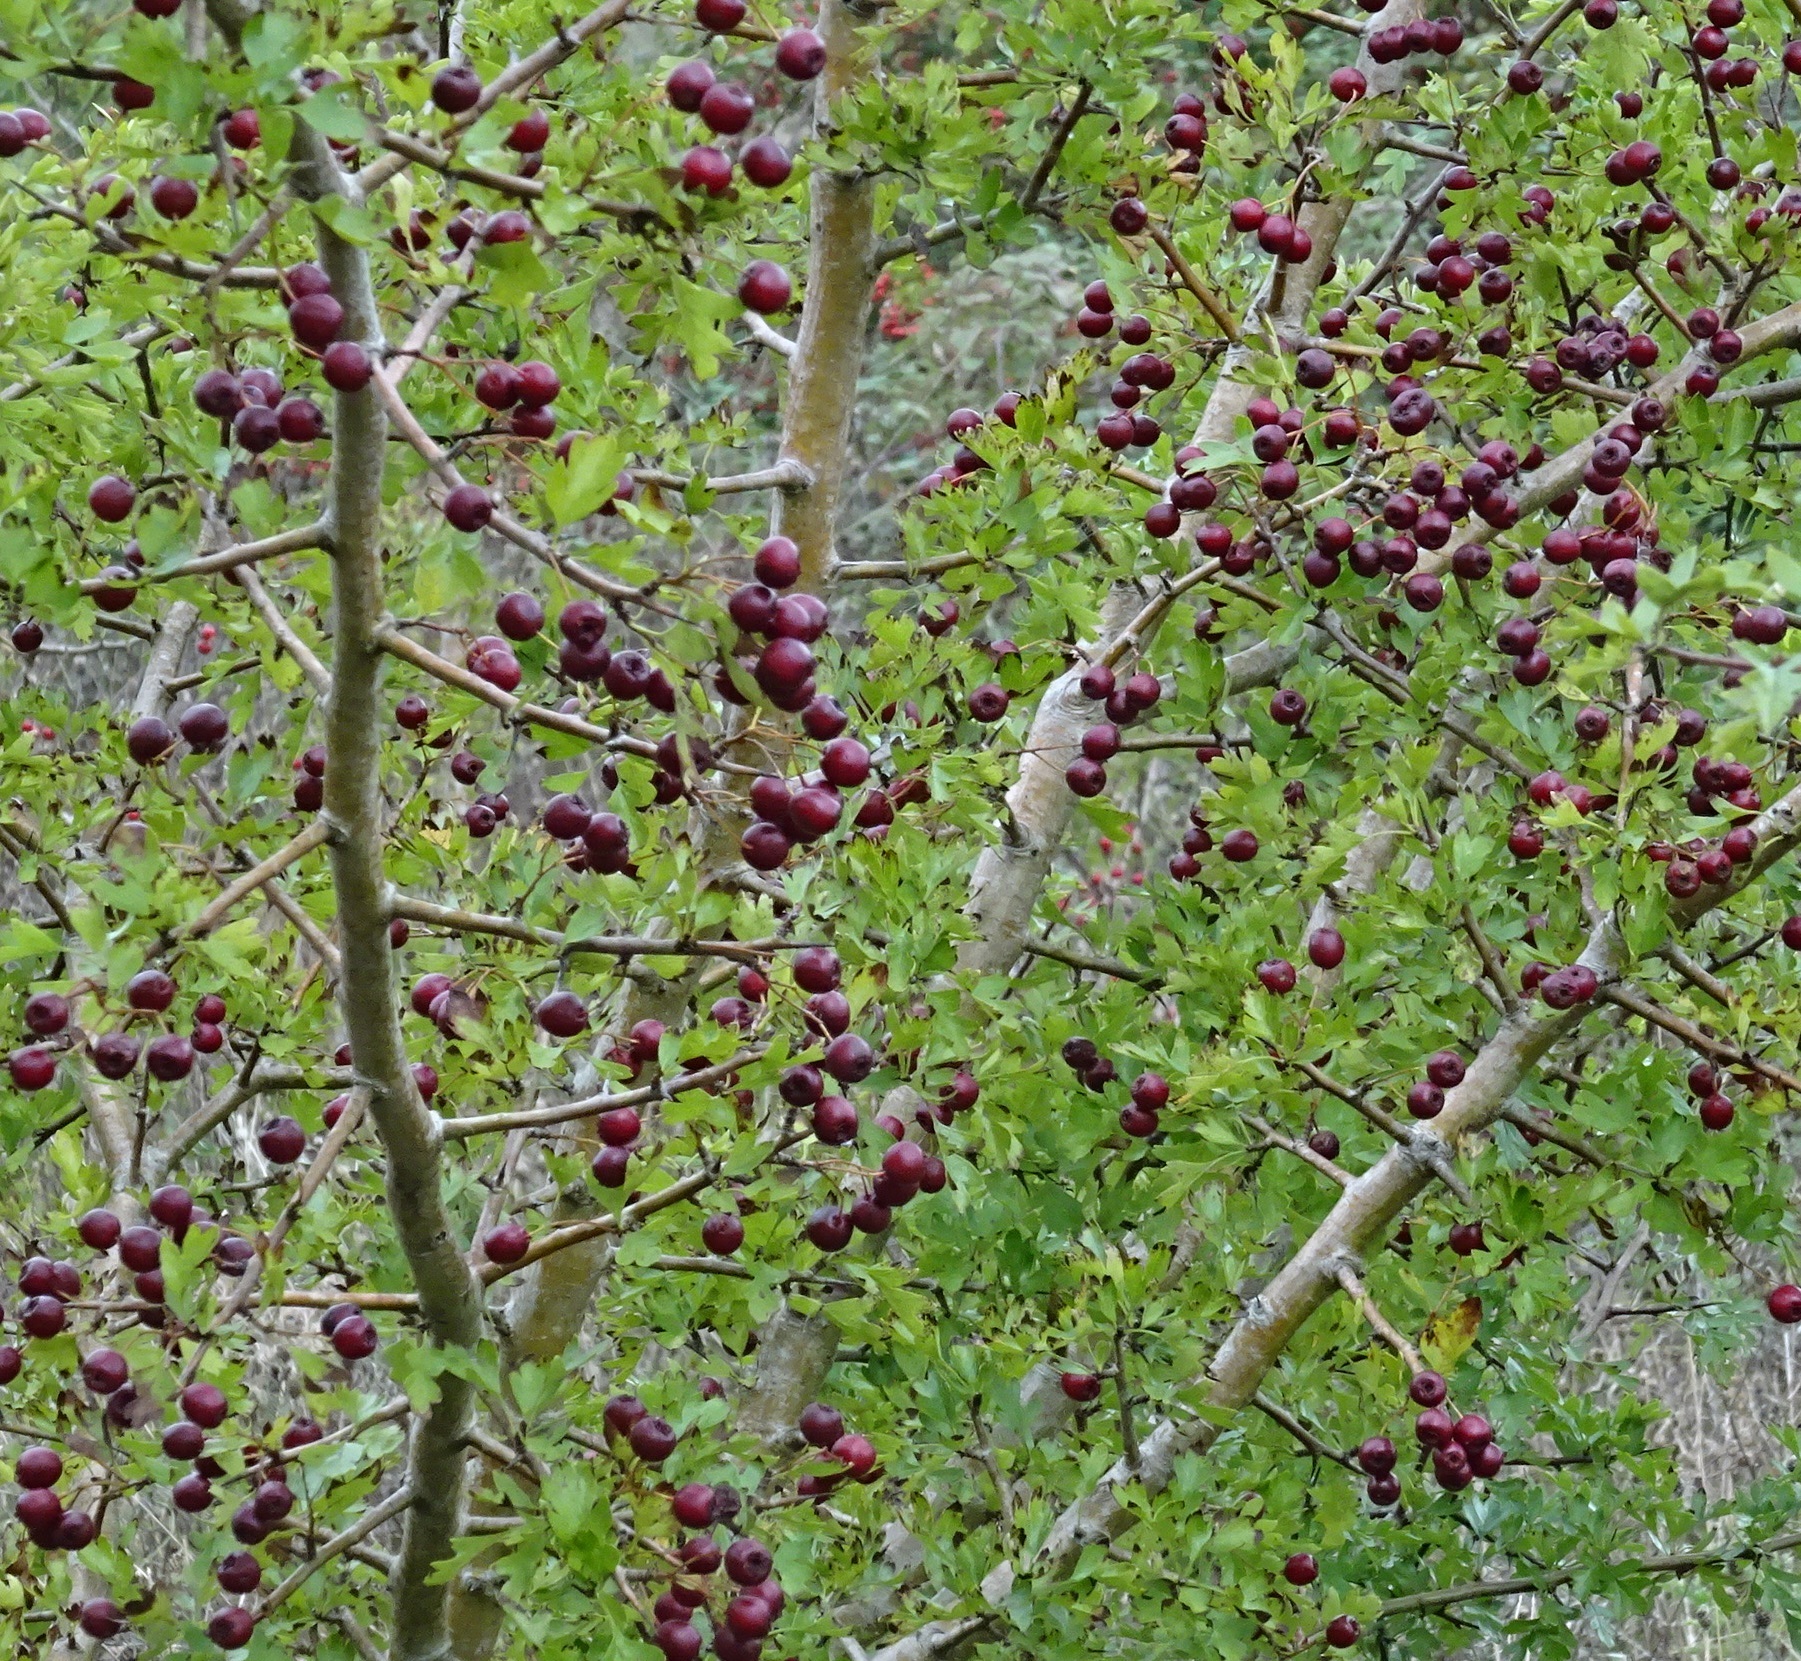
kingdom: Plantae
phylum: Tracheophyta
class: Magnoliopsida
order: Rosales
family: Rosaceae
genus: Crataegus
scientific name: Crataegus monogyna
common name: Hawthorn
